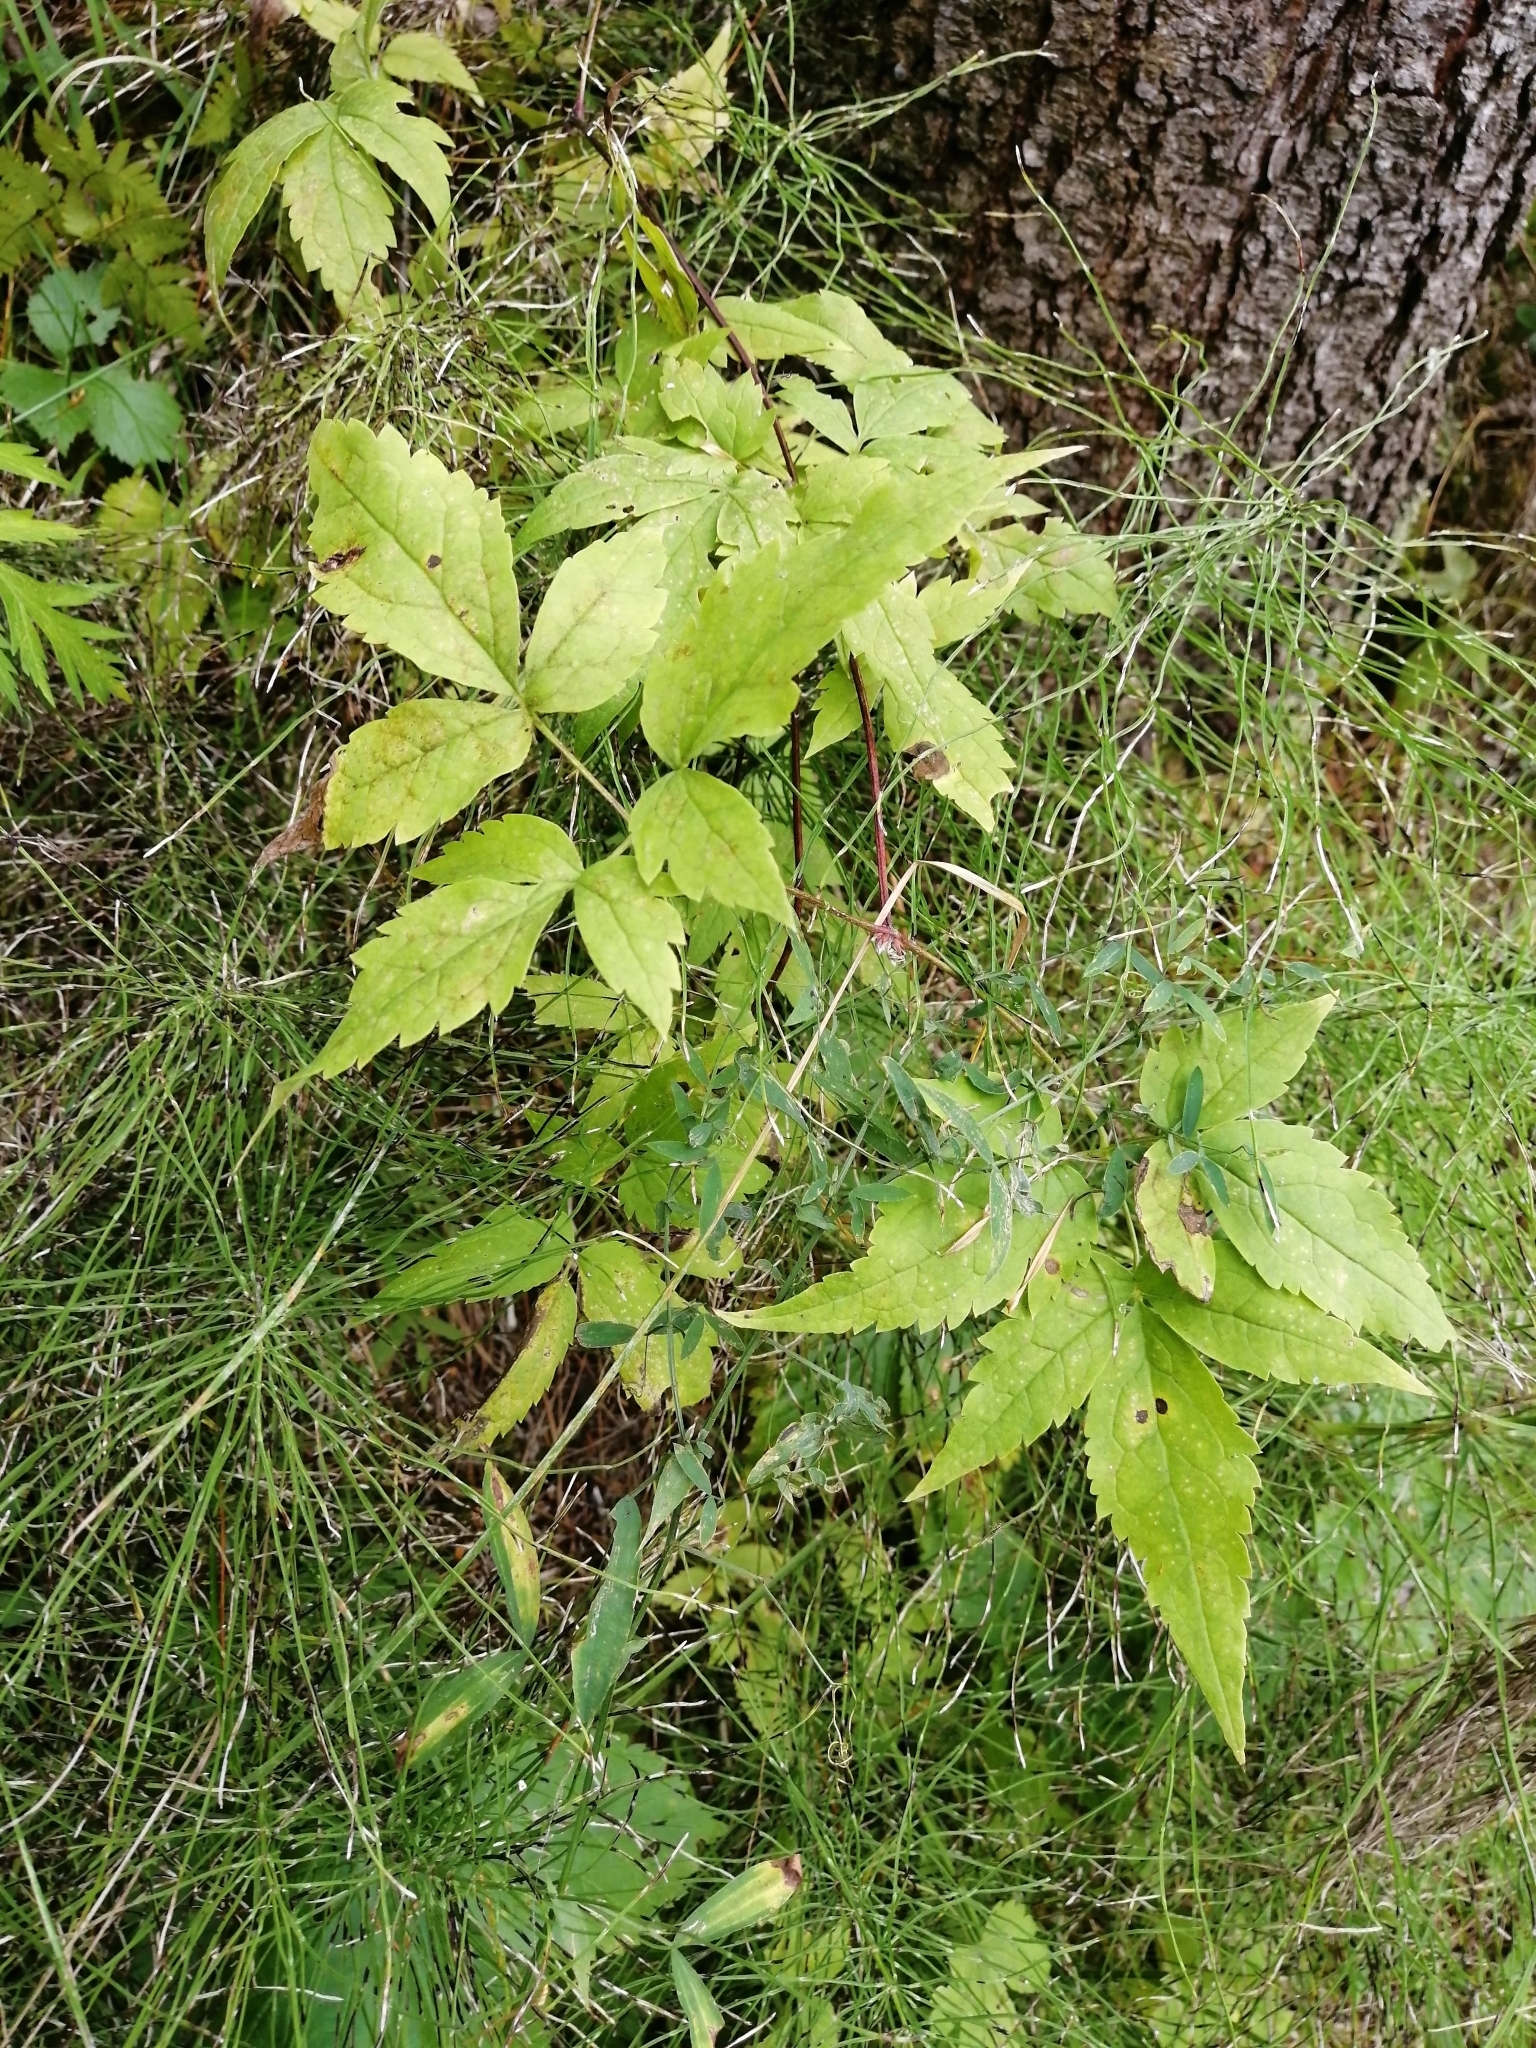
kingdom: Plantae
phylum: Tracheophyta
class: Magnoliopsida
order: Ranunculales
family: Ranunculaceae
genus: Clematis
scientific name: Clematis sibirica
